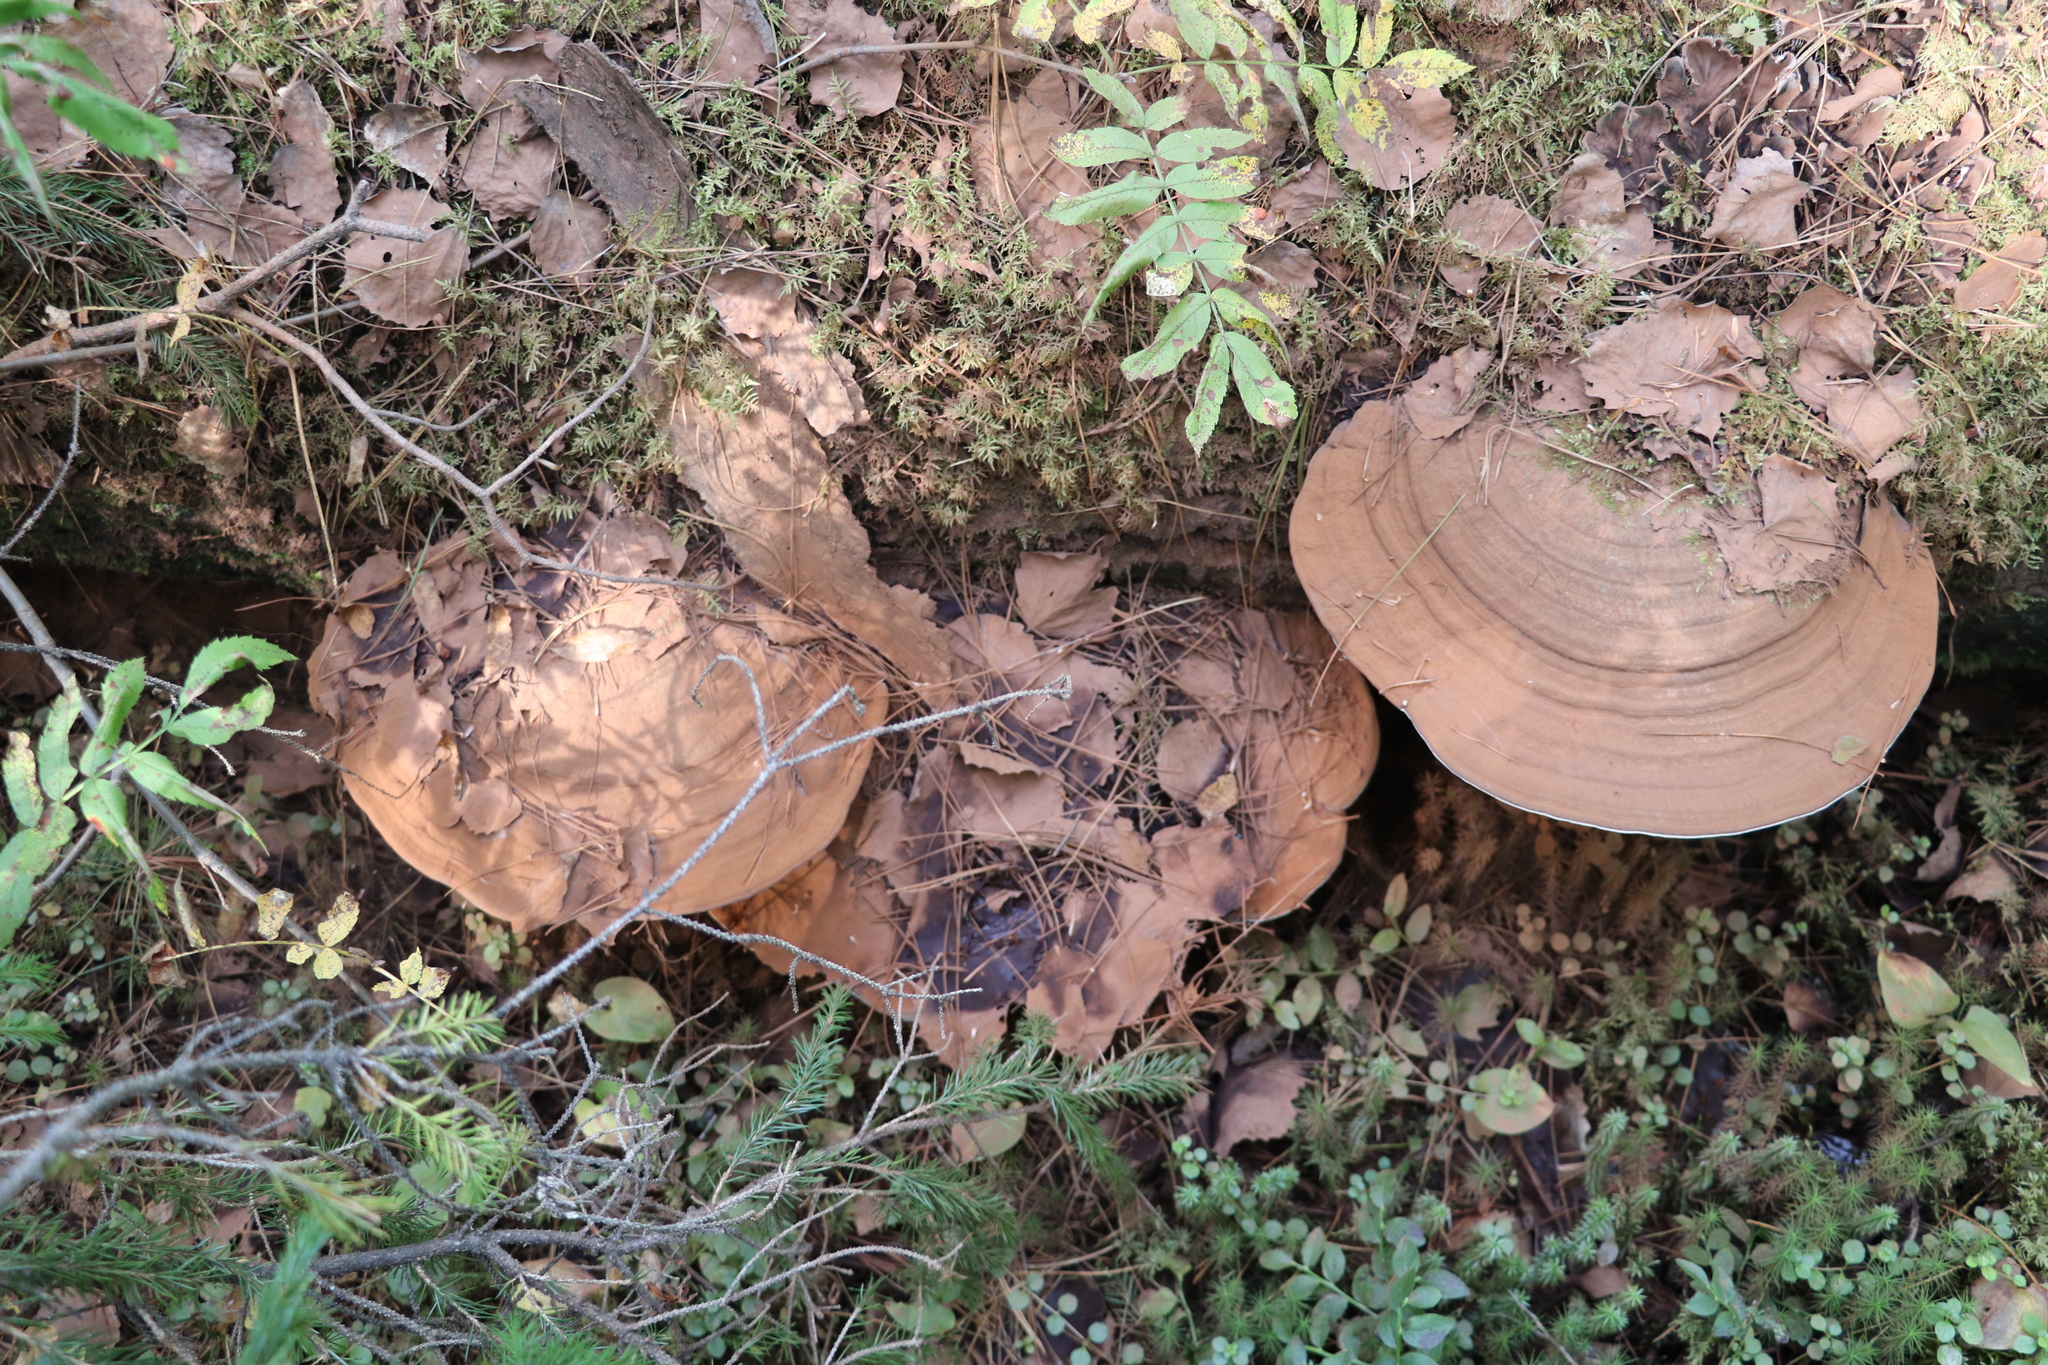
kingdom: Fungi
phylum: Basidiomycota
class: Agaricomycetes
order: Polyporales
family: Polyporaceae
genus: Ganoderma
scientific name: Ganoderma applanatum
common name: Artist's bracket
